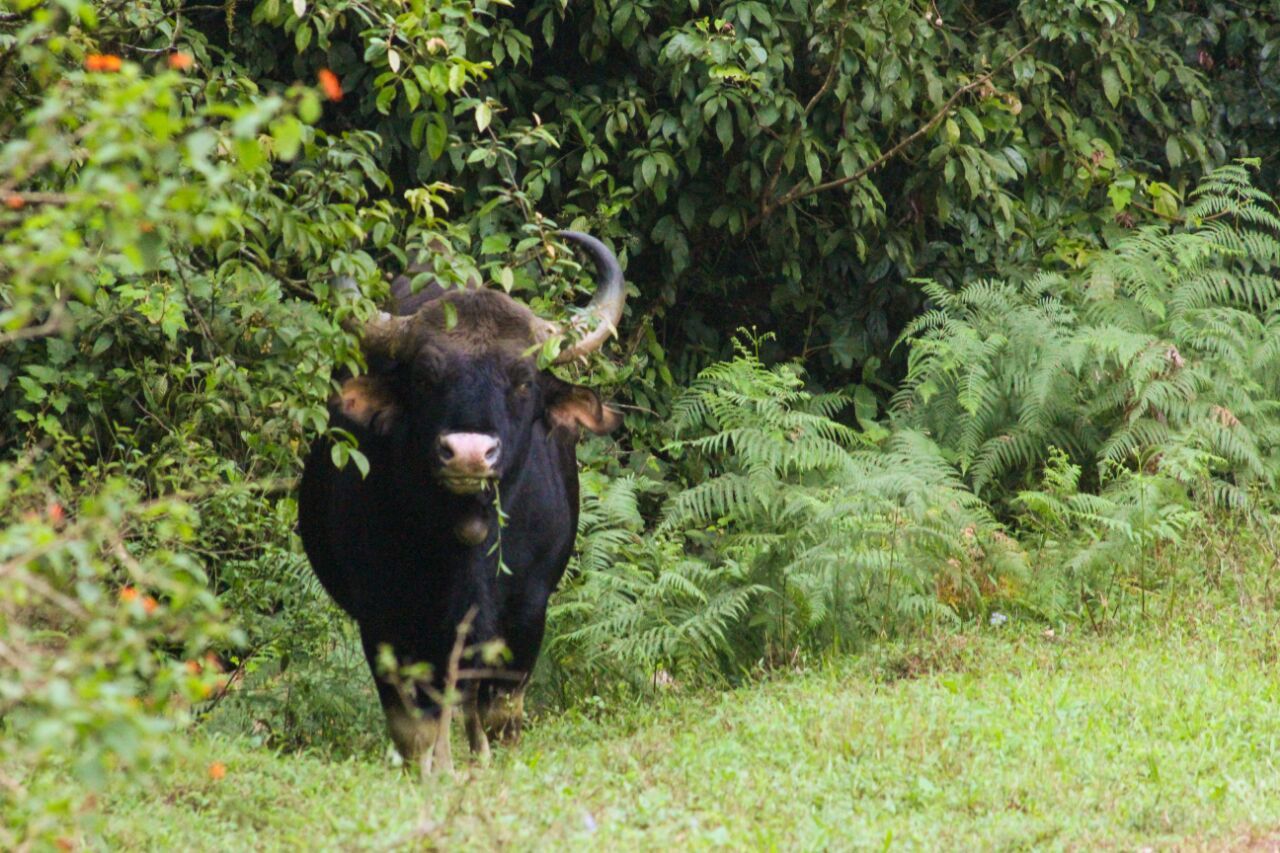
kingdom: Animalia
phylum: Chordata
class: Mammalia
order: Artiodactyla
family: Bovidae
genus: Bos
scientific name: Bos frontalis
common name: Gaur
